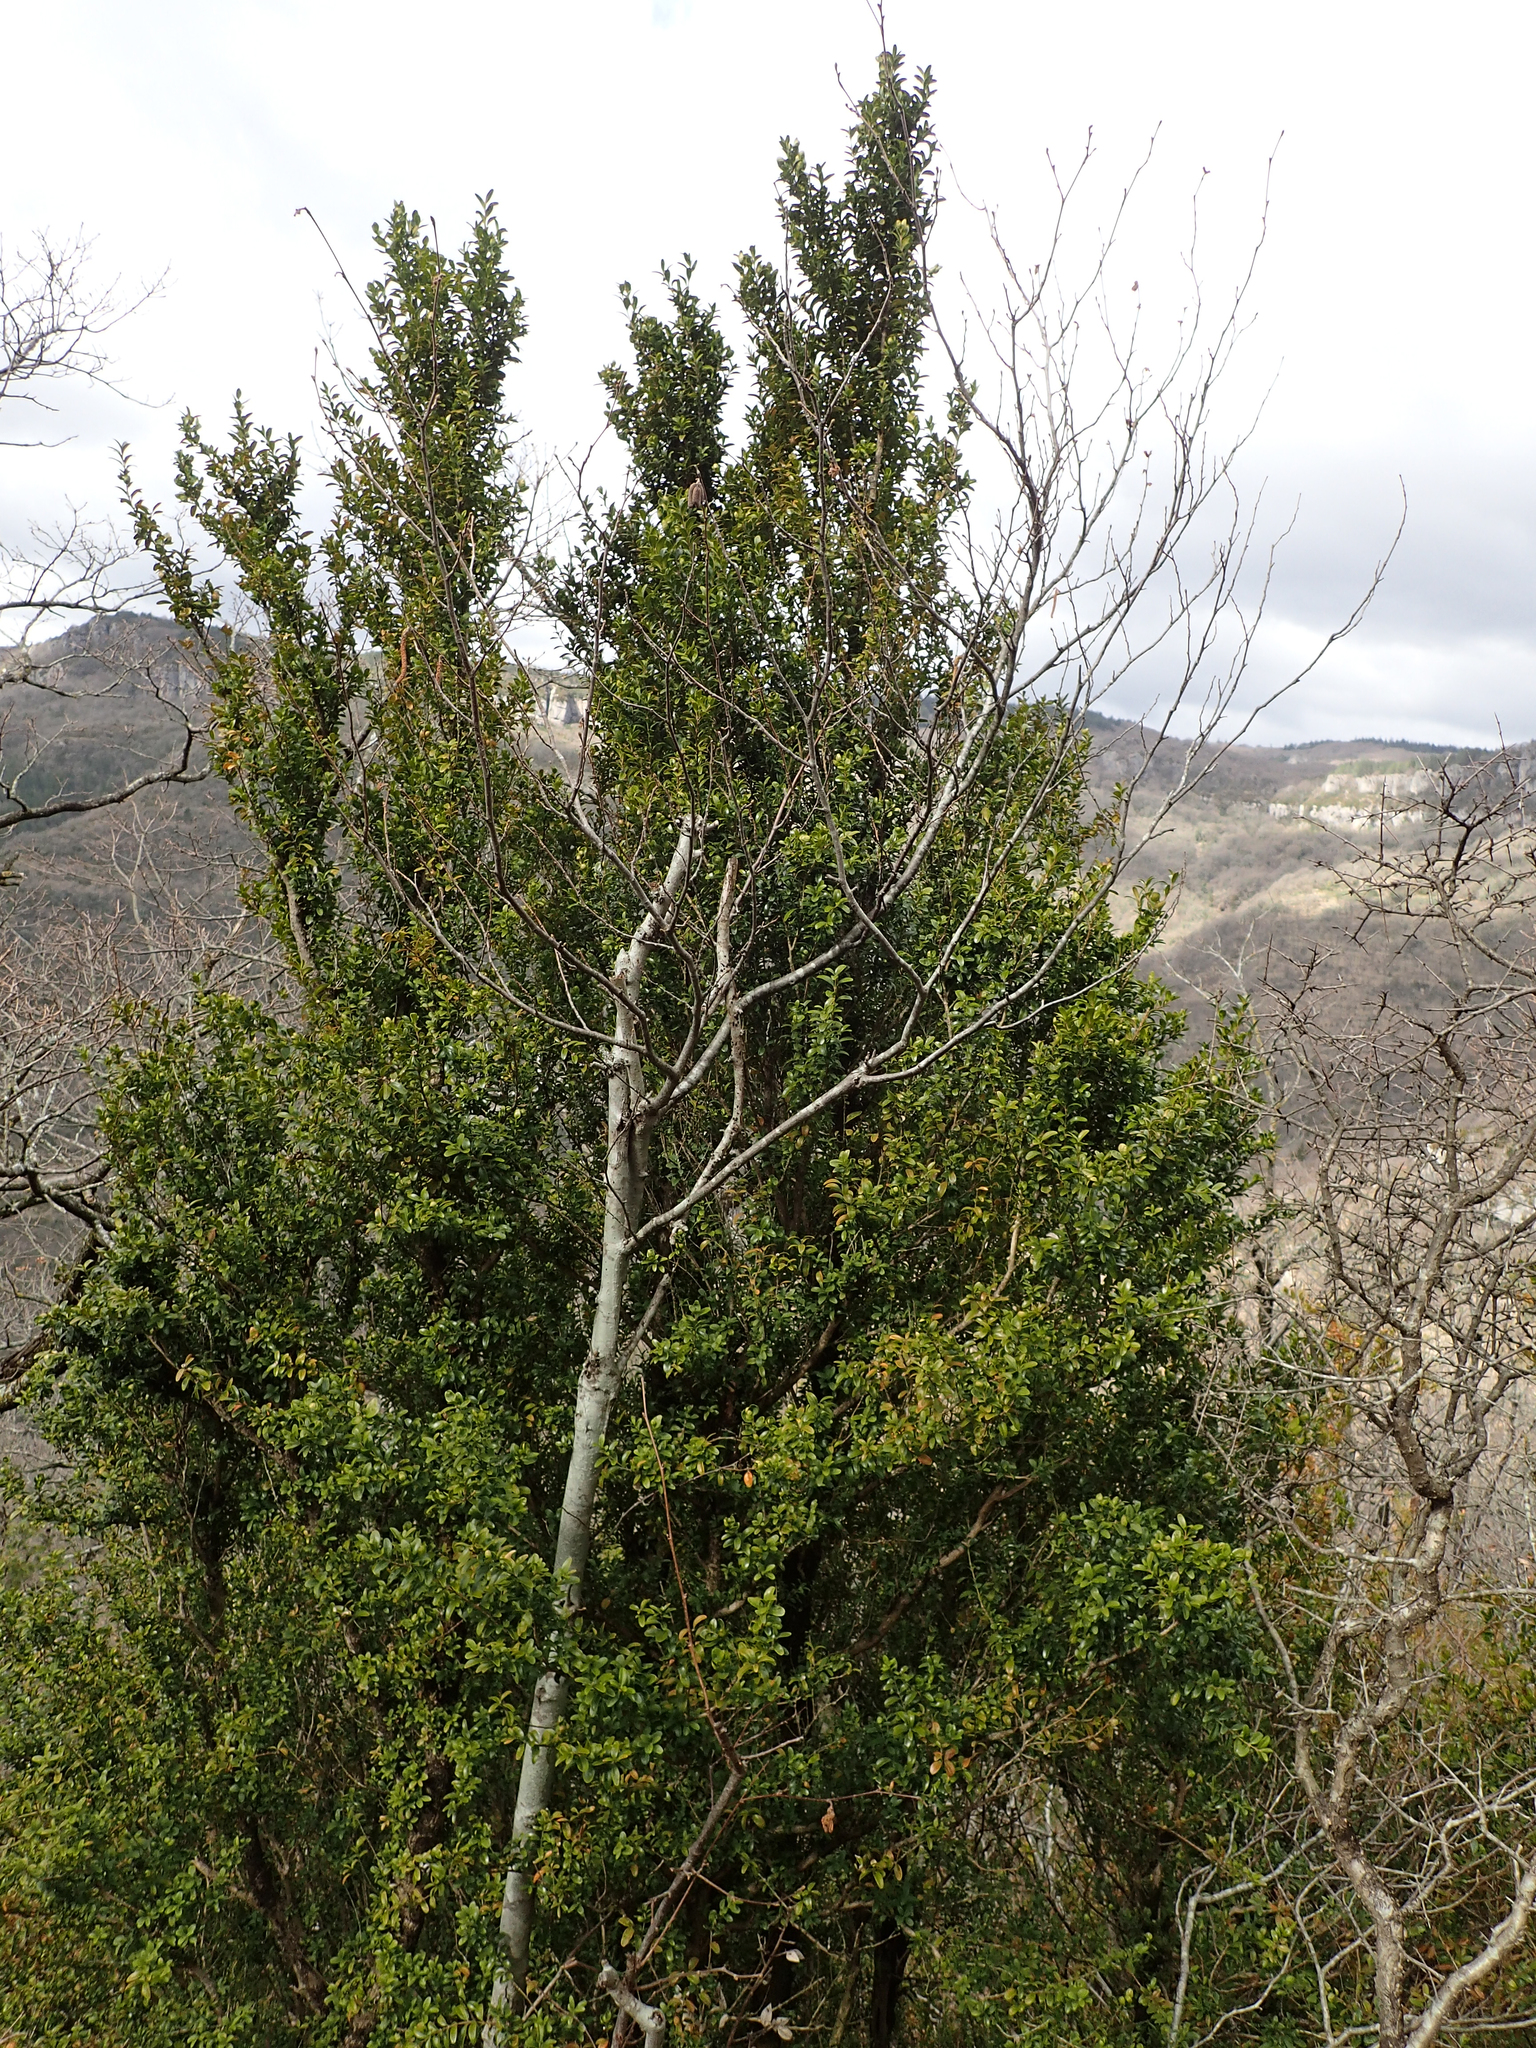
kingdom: Plantae
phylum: Tracheophyta
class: Magnoliopsida
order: Buxales
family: Buxaceae
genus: Buxus
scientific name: Buxus sempervirens
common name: Box
